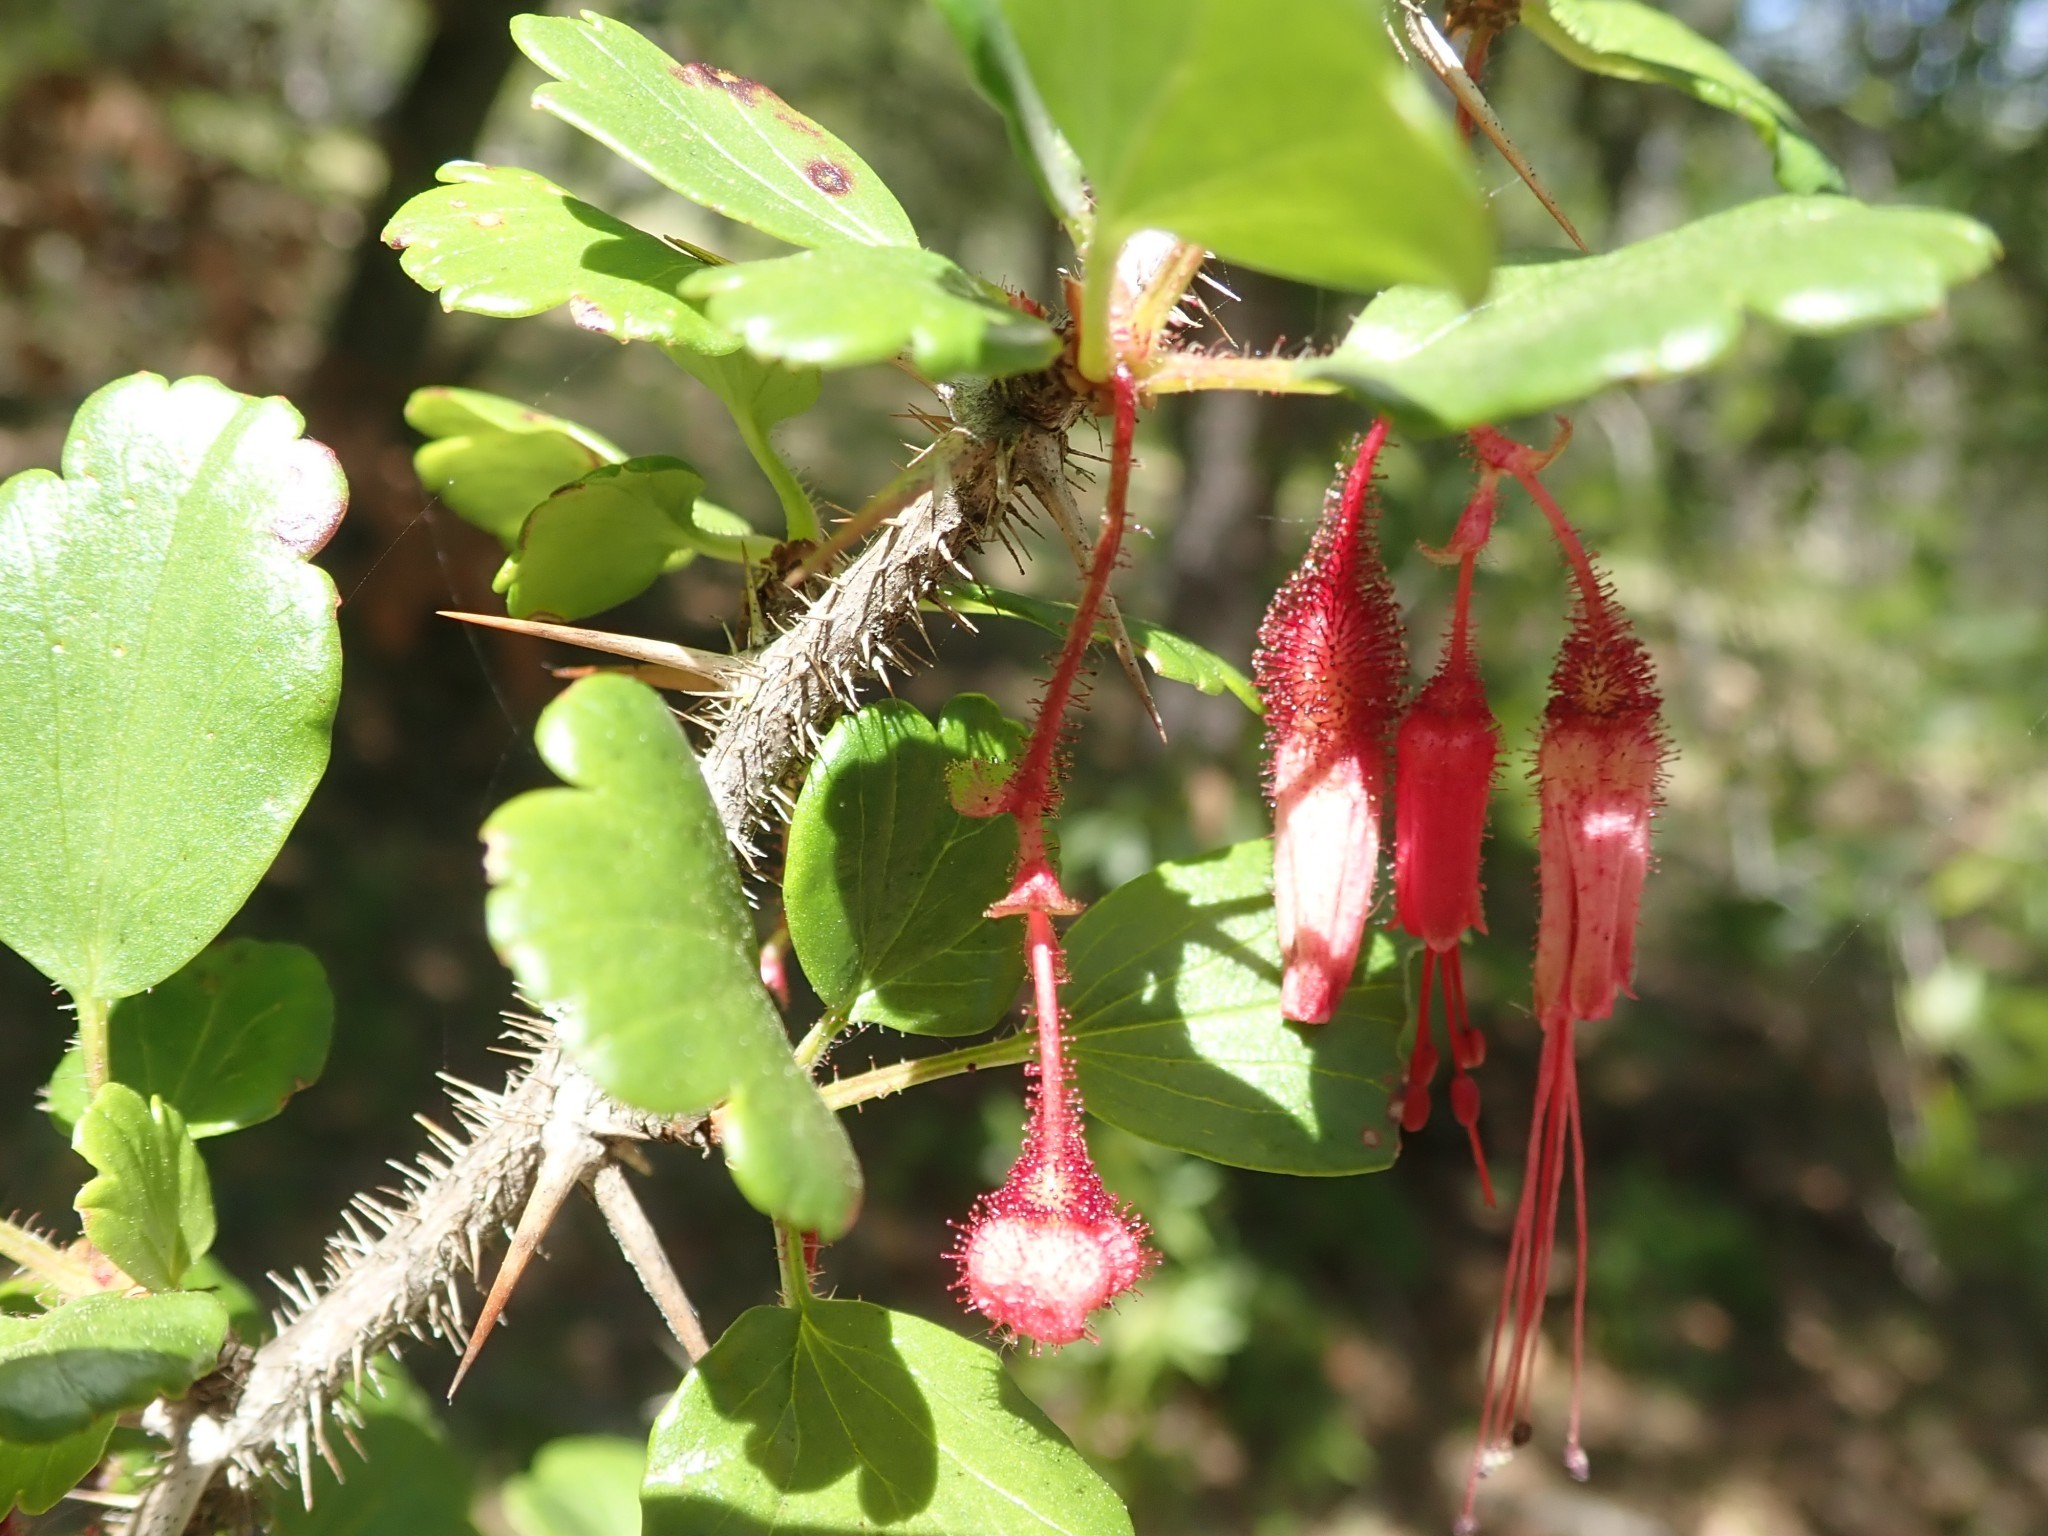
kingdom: Plantae
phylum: Tracheophyta
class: Magnoliopsida
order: Saxifragales
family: Grossulariaceae
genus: Ribes
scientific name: Ribes speciosum
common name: Fuchsia-flower gooseberry
